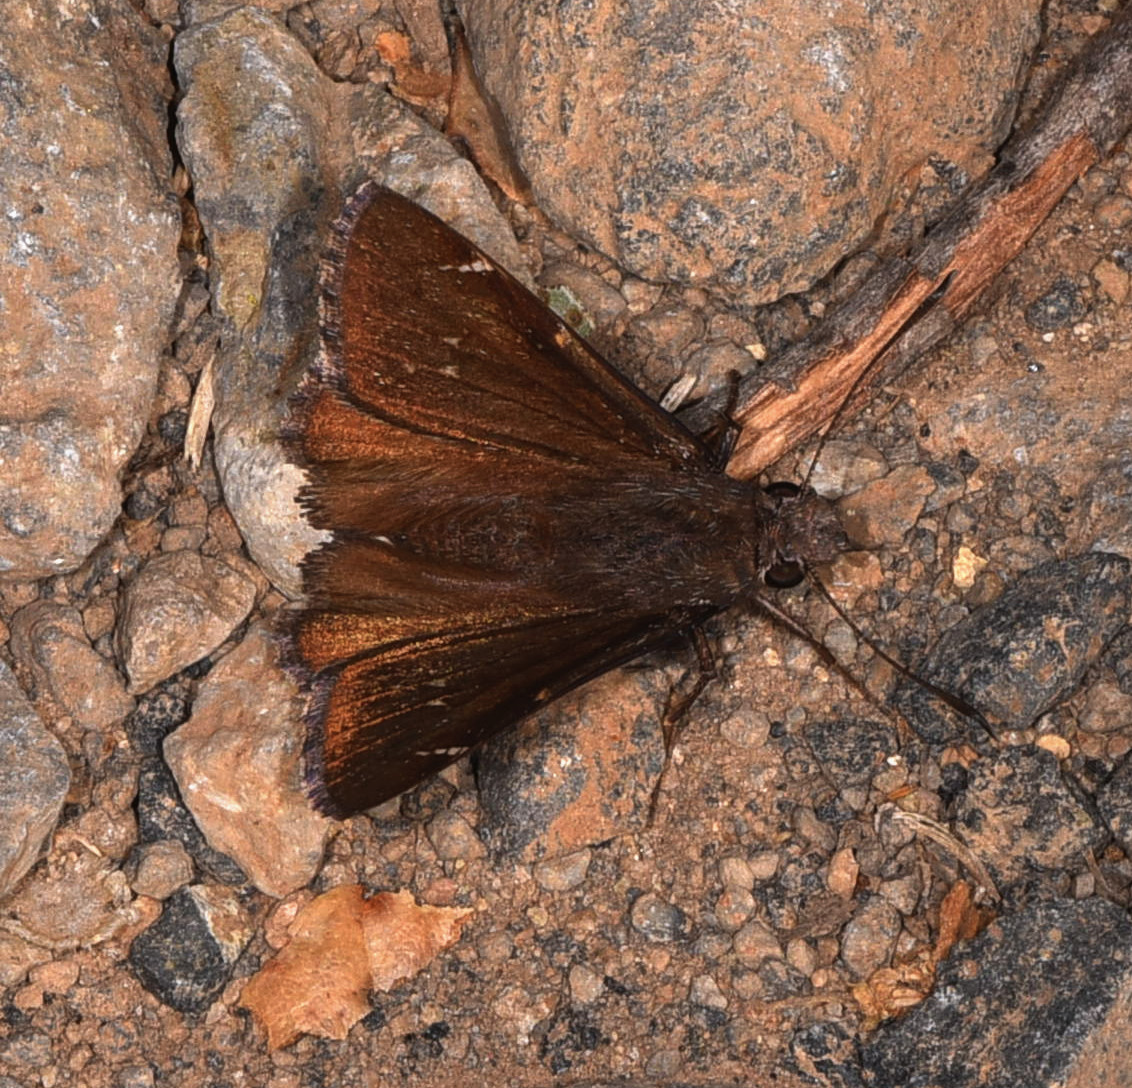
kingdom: Animalia
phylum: Arthropoda
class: Insecta
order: Lepidoptera
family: Hesperiidae
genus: Thorybes
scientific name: Thorybes pylades
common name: Northern cloudywing
